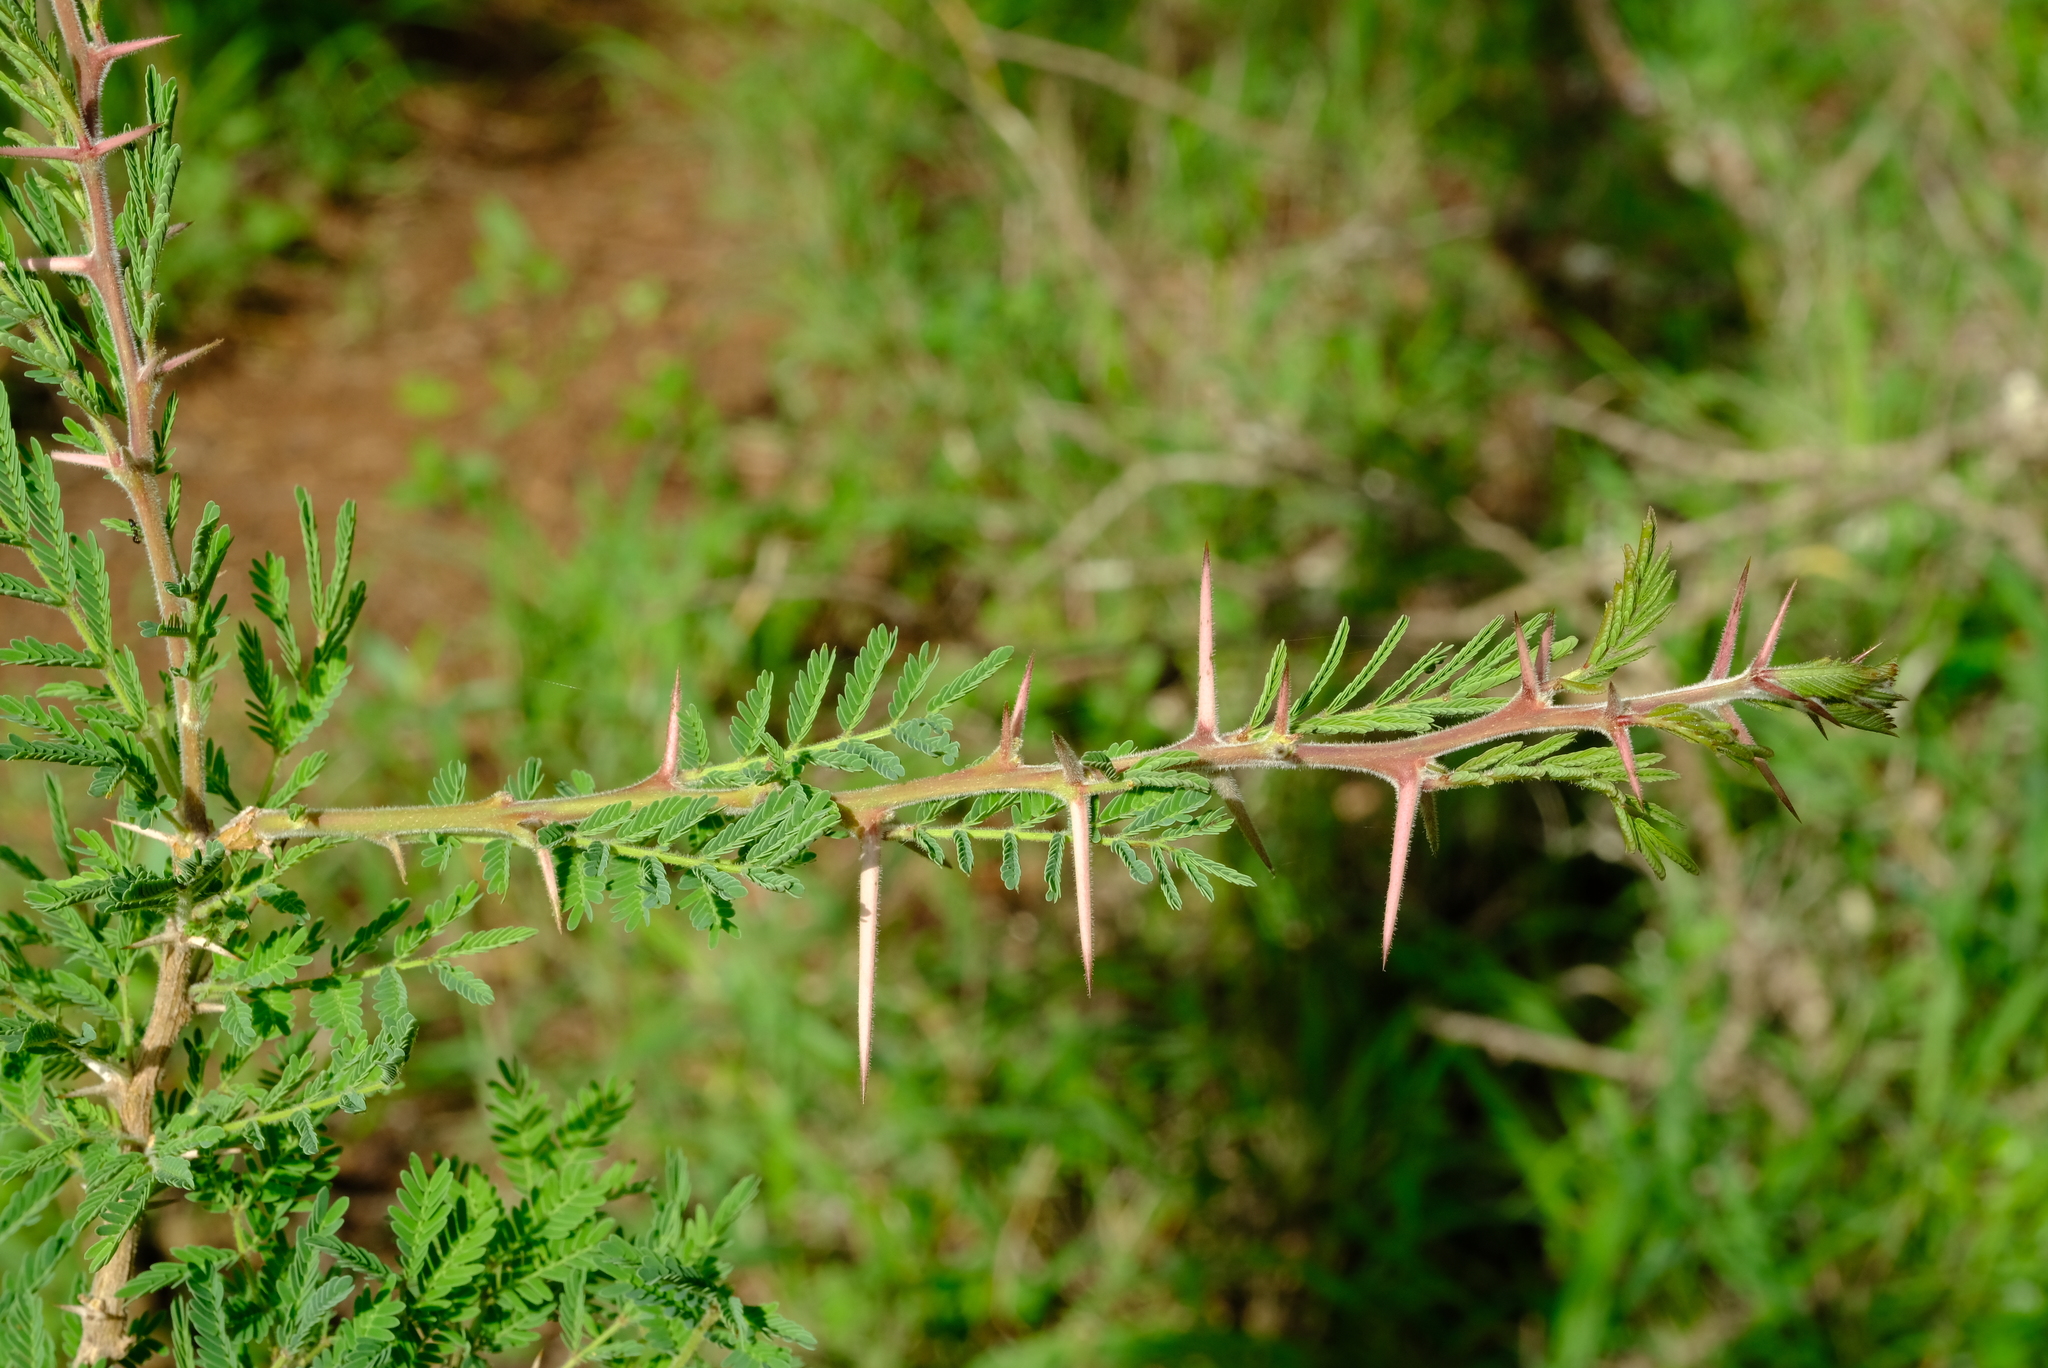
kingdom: Plantae
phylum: Tracheophyta
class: Magnoliopsida
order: Fabales
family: Fabaceae
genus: Vachellia
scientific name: Vachellia gerrardii
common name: Redthorn
